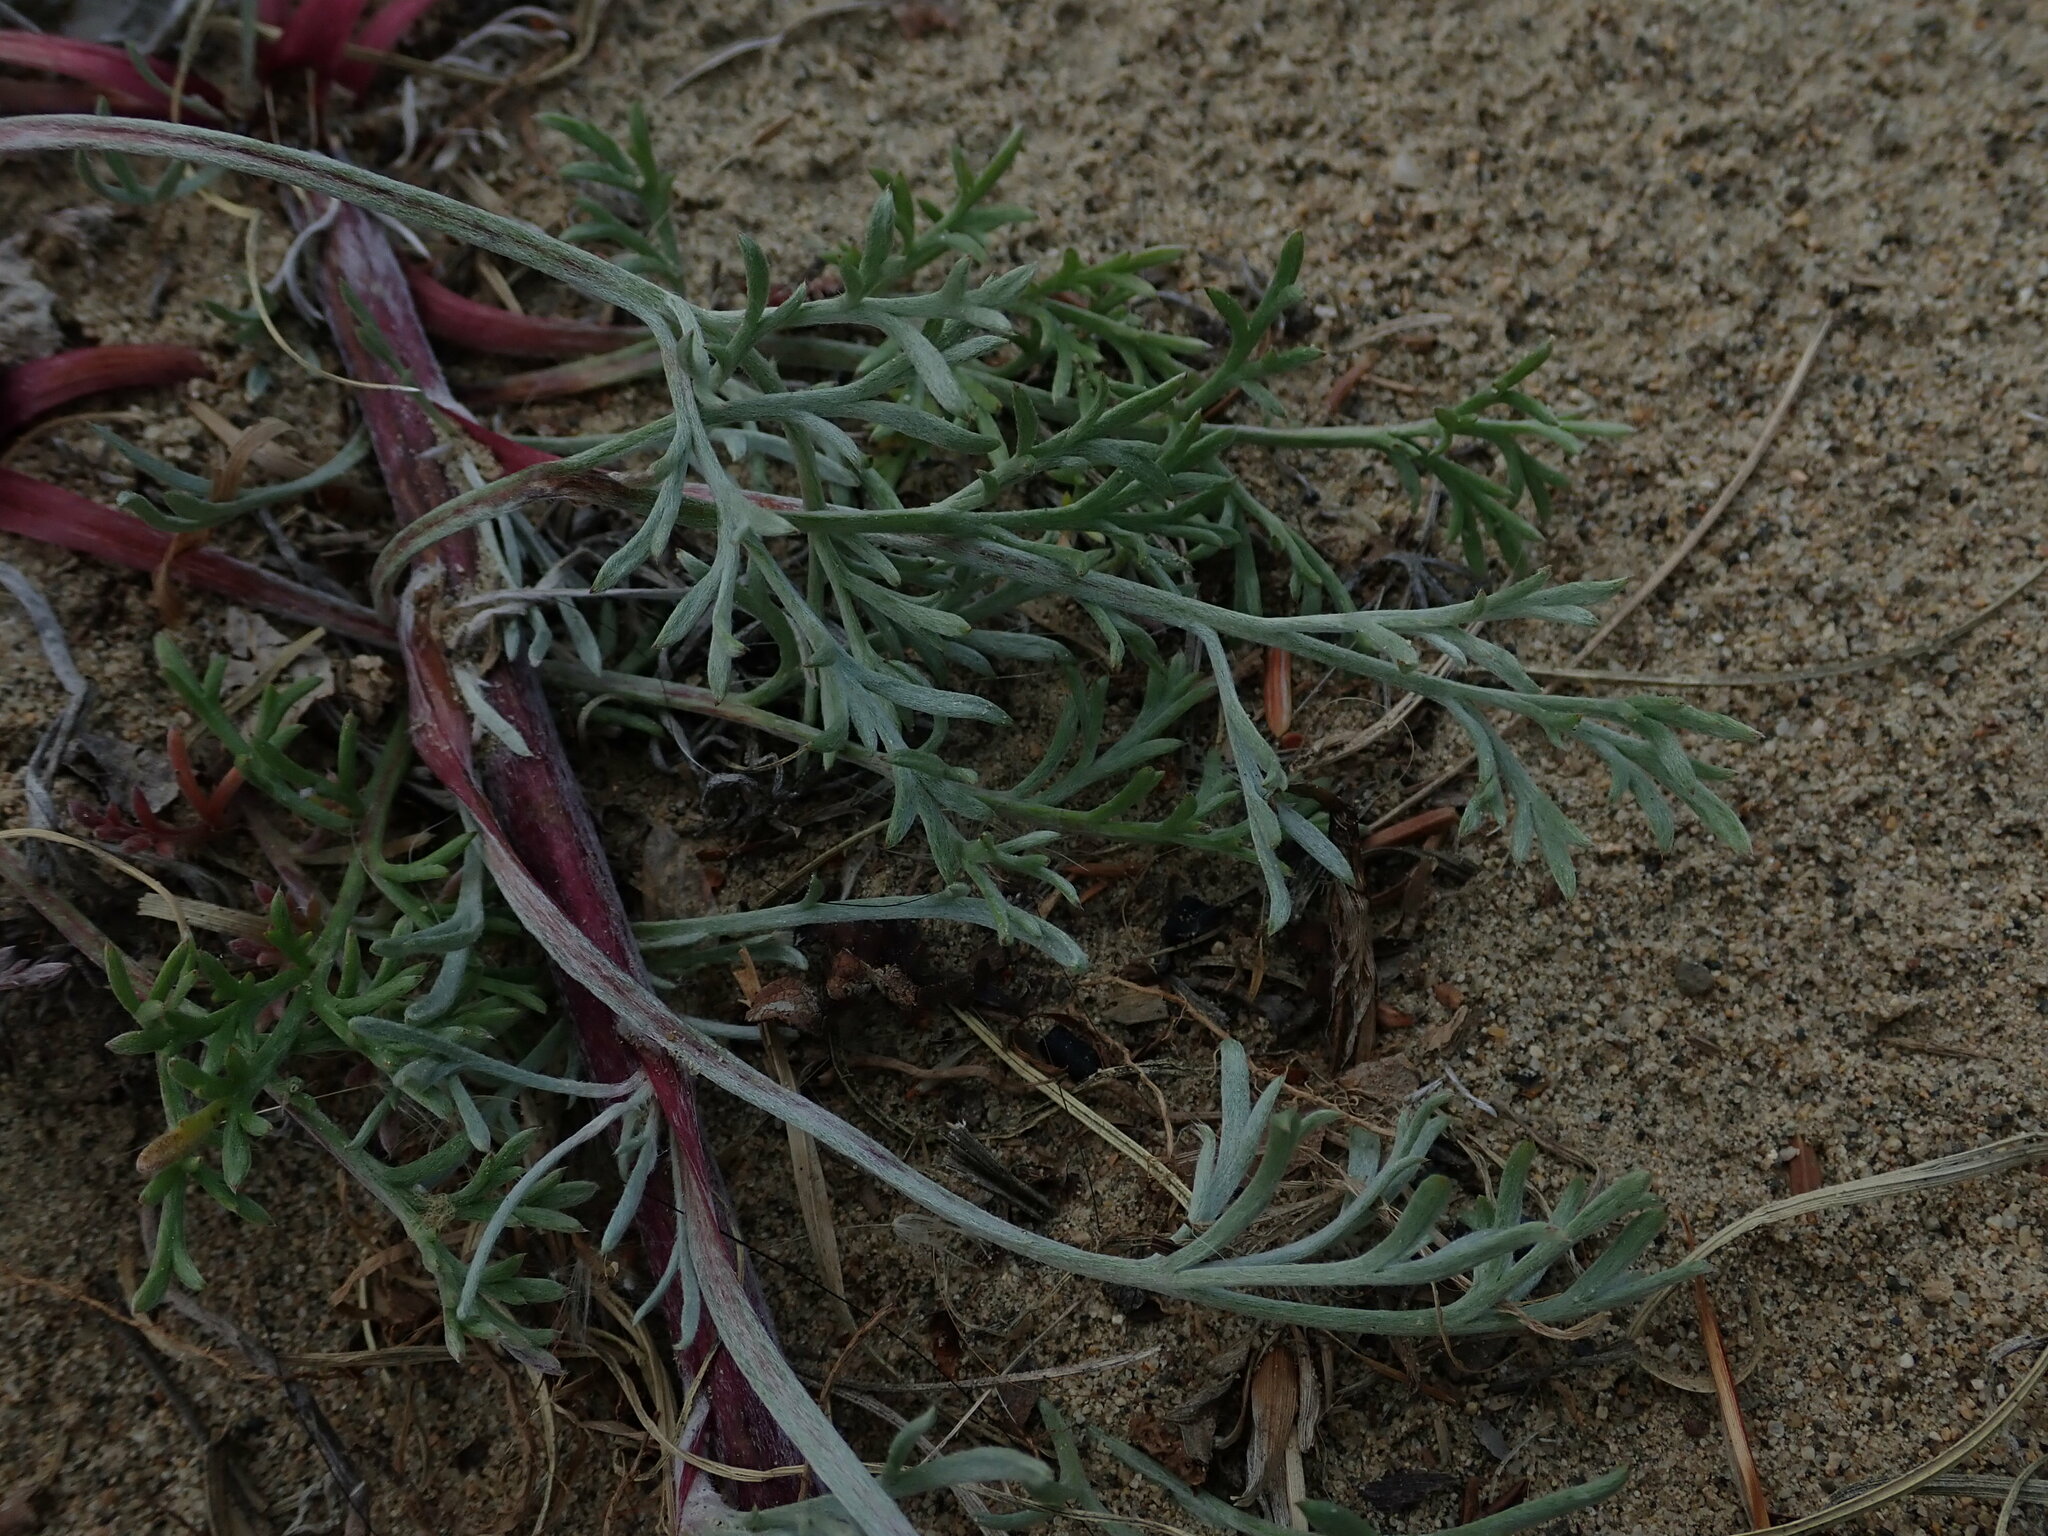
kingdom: Plantae
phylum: Tracheophyta
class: Magnoliopsida
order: Asterales
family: Asteraceae
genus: Artemisia
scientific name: Artemisia borealis
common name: Boreal sage
